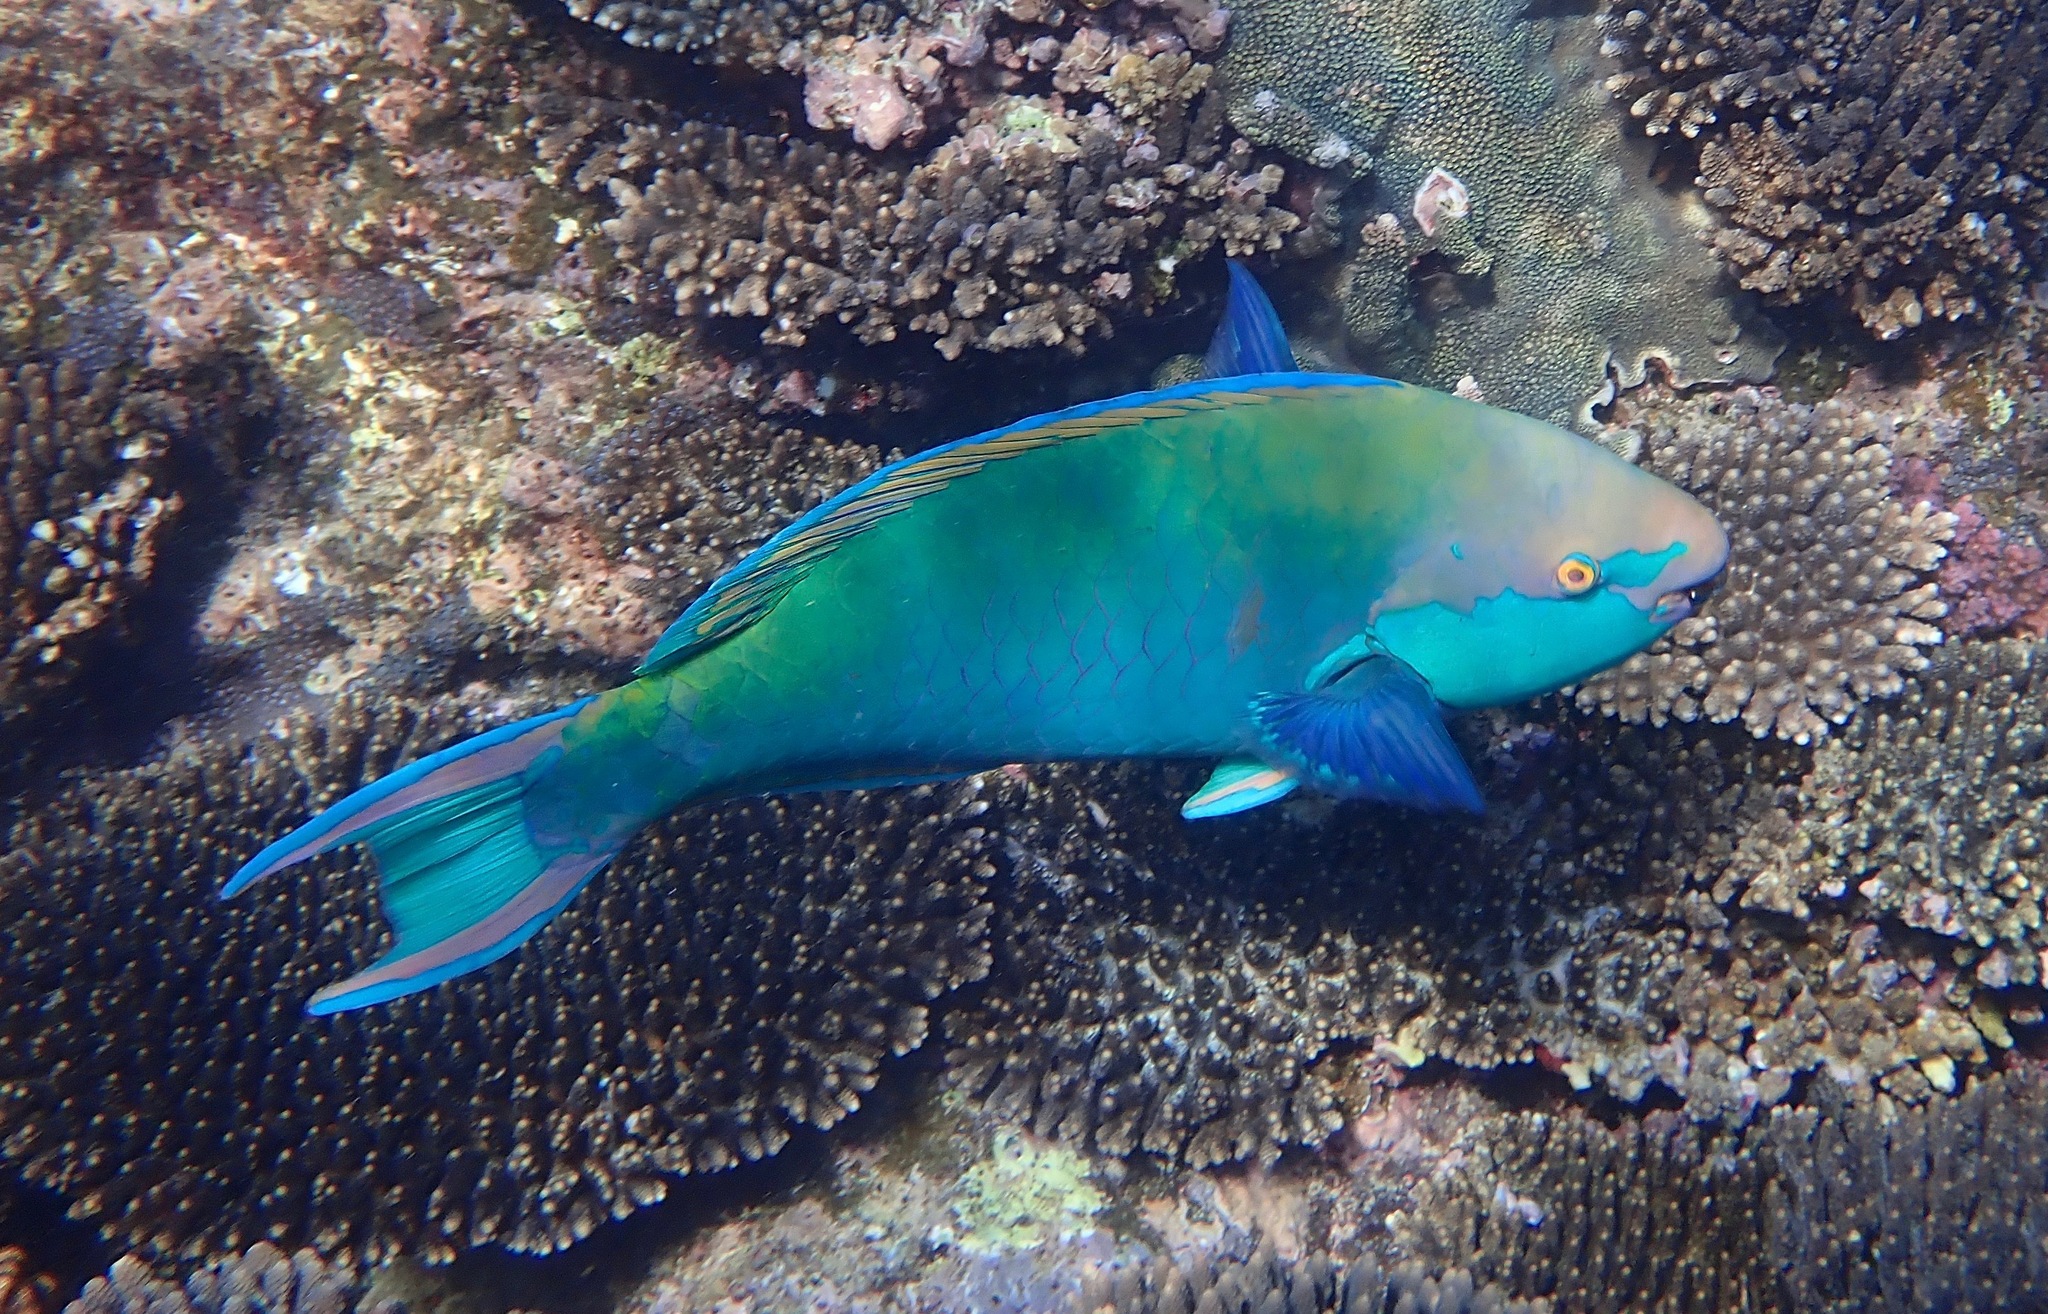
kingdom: Animalia
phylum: Chordata
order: Perciformes
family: Scaridae
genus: Scarus
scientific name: Scarus prasiognathos
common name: Singapore parrotfish
